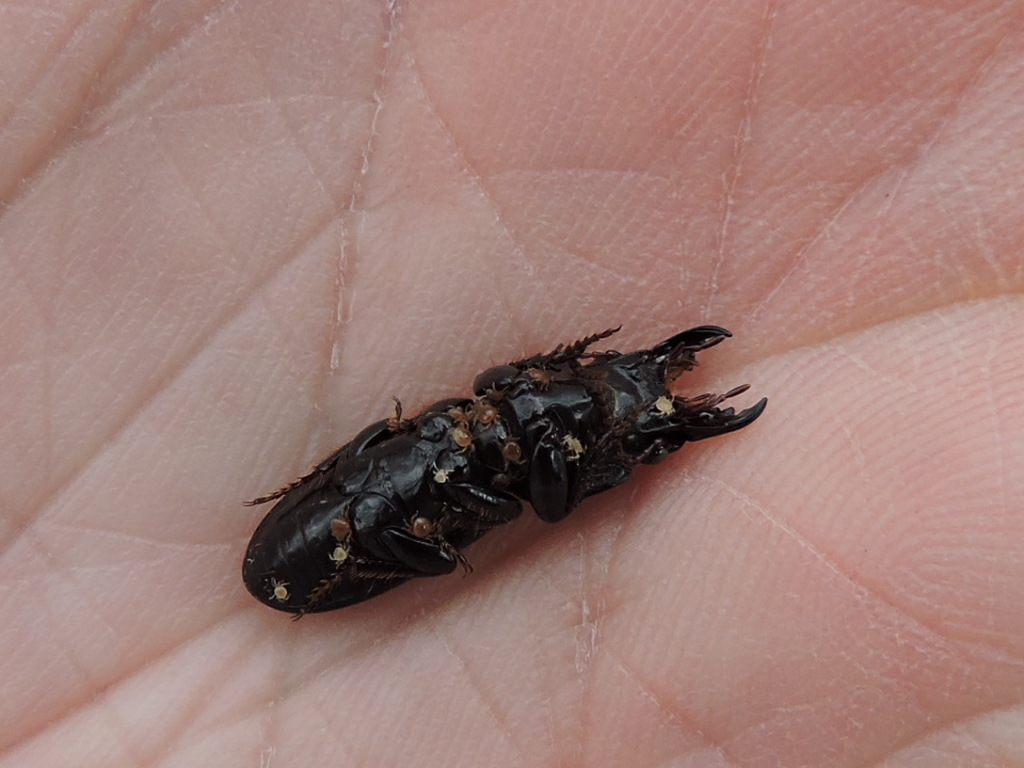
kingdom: Animalia
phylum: Arthropoda
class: Arachnida
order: Mesostigmata
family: Parantennulidae
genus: Micromegistus
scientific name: Micromegistus bakeri
